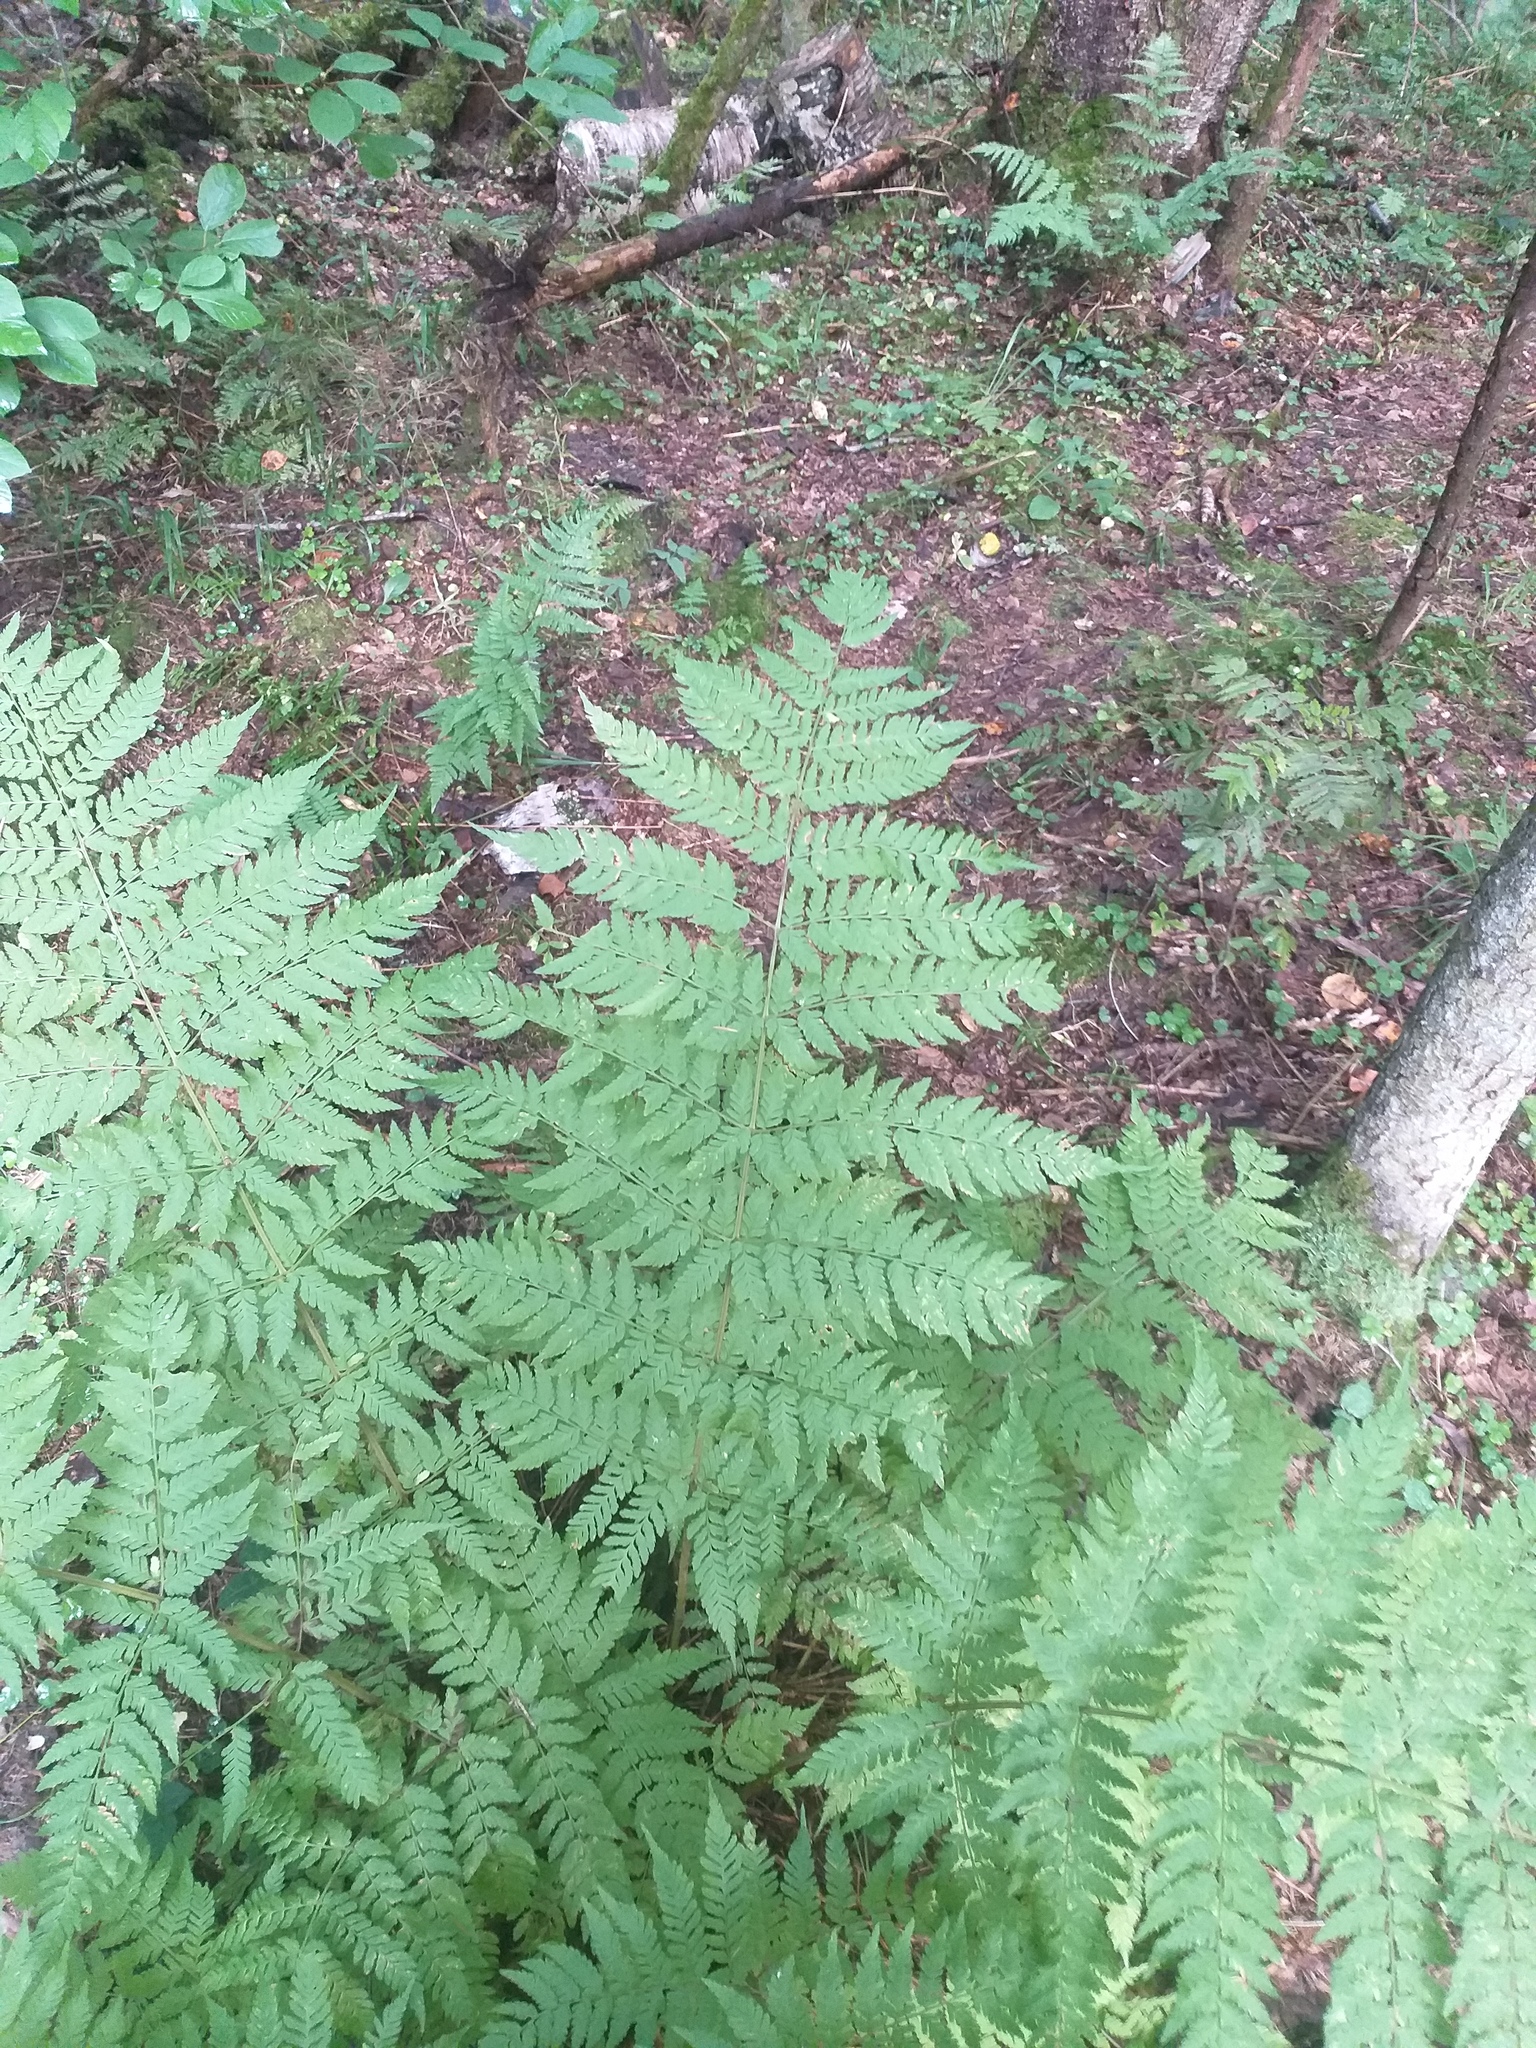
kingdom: Plantae
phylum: Tracheophyta
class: Polypodiopsida
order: Polypodiales
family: Dryopteridaceae
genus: Dryopteris
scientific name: Dryopteris expansa
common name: Northern buckler fern
